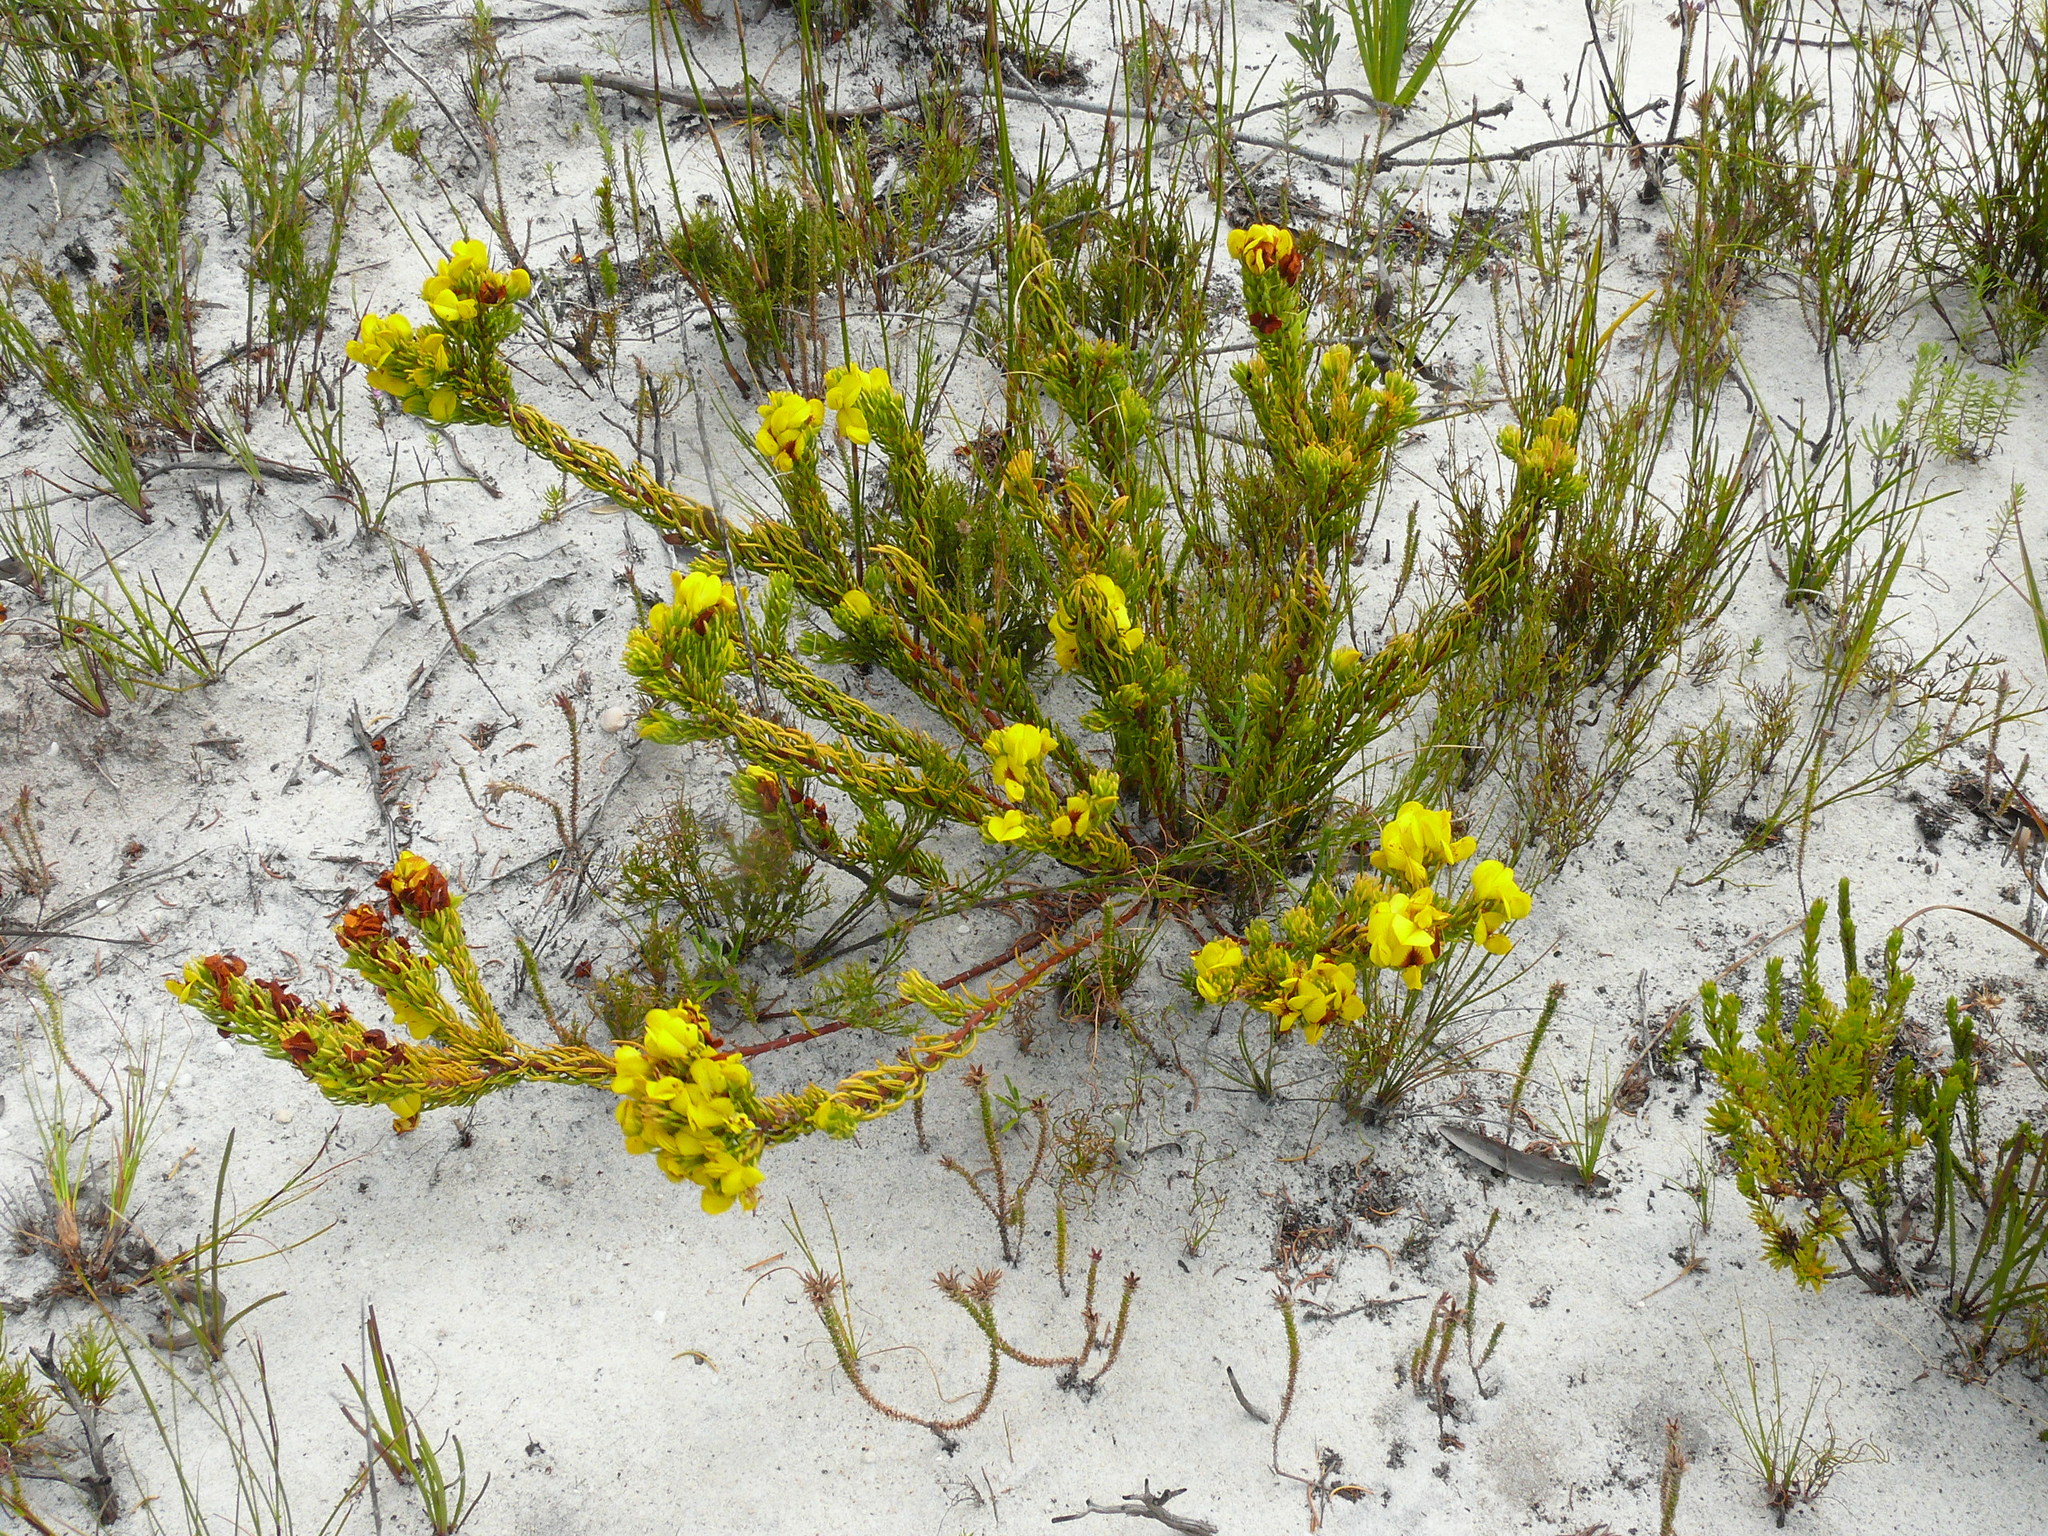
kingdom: Plantae
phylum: Tracheophyta
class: Magnoliopsida
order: Fabales
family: Fabaceae
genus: Cyclopia
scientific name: Cyclopia galioides
